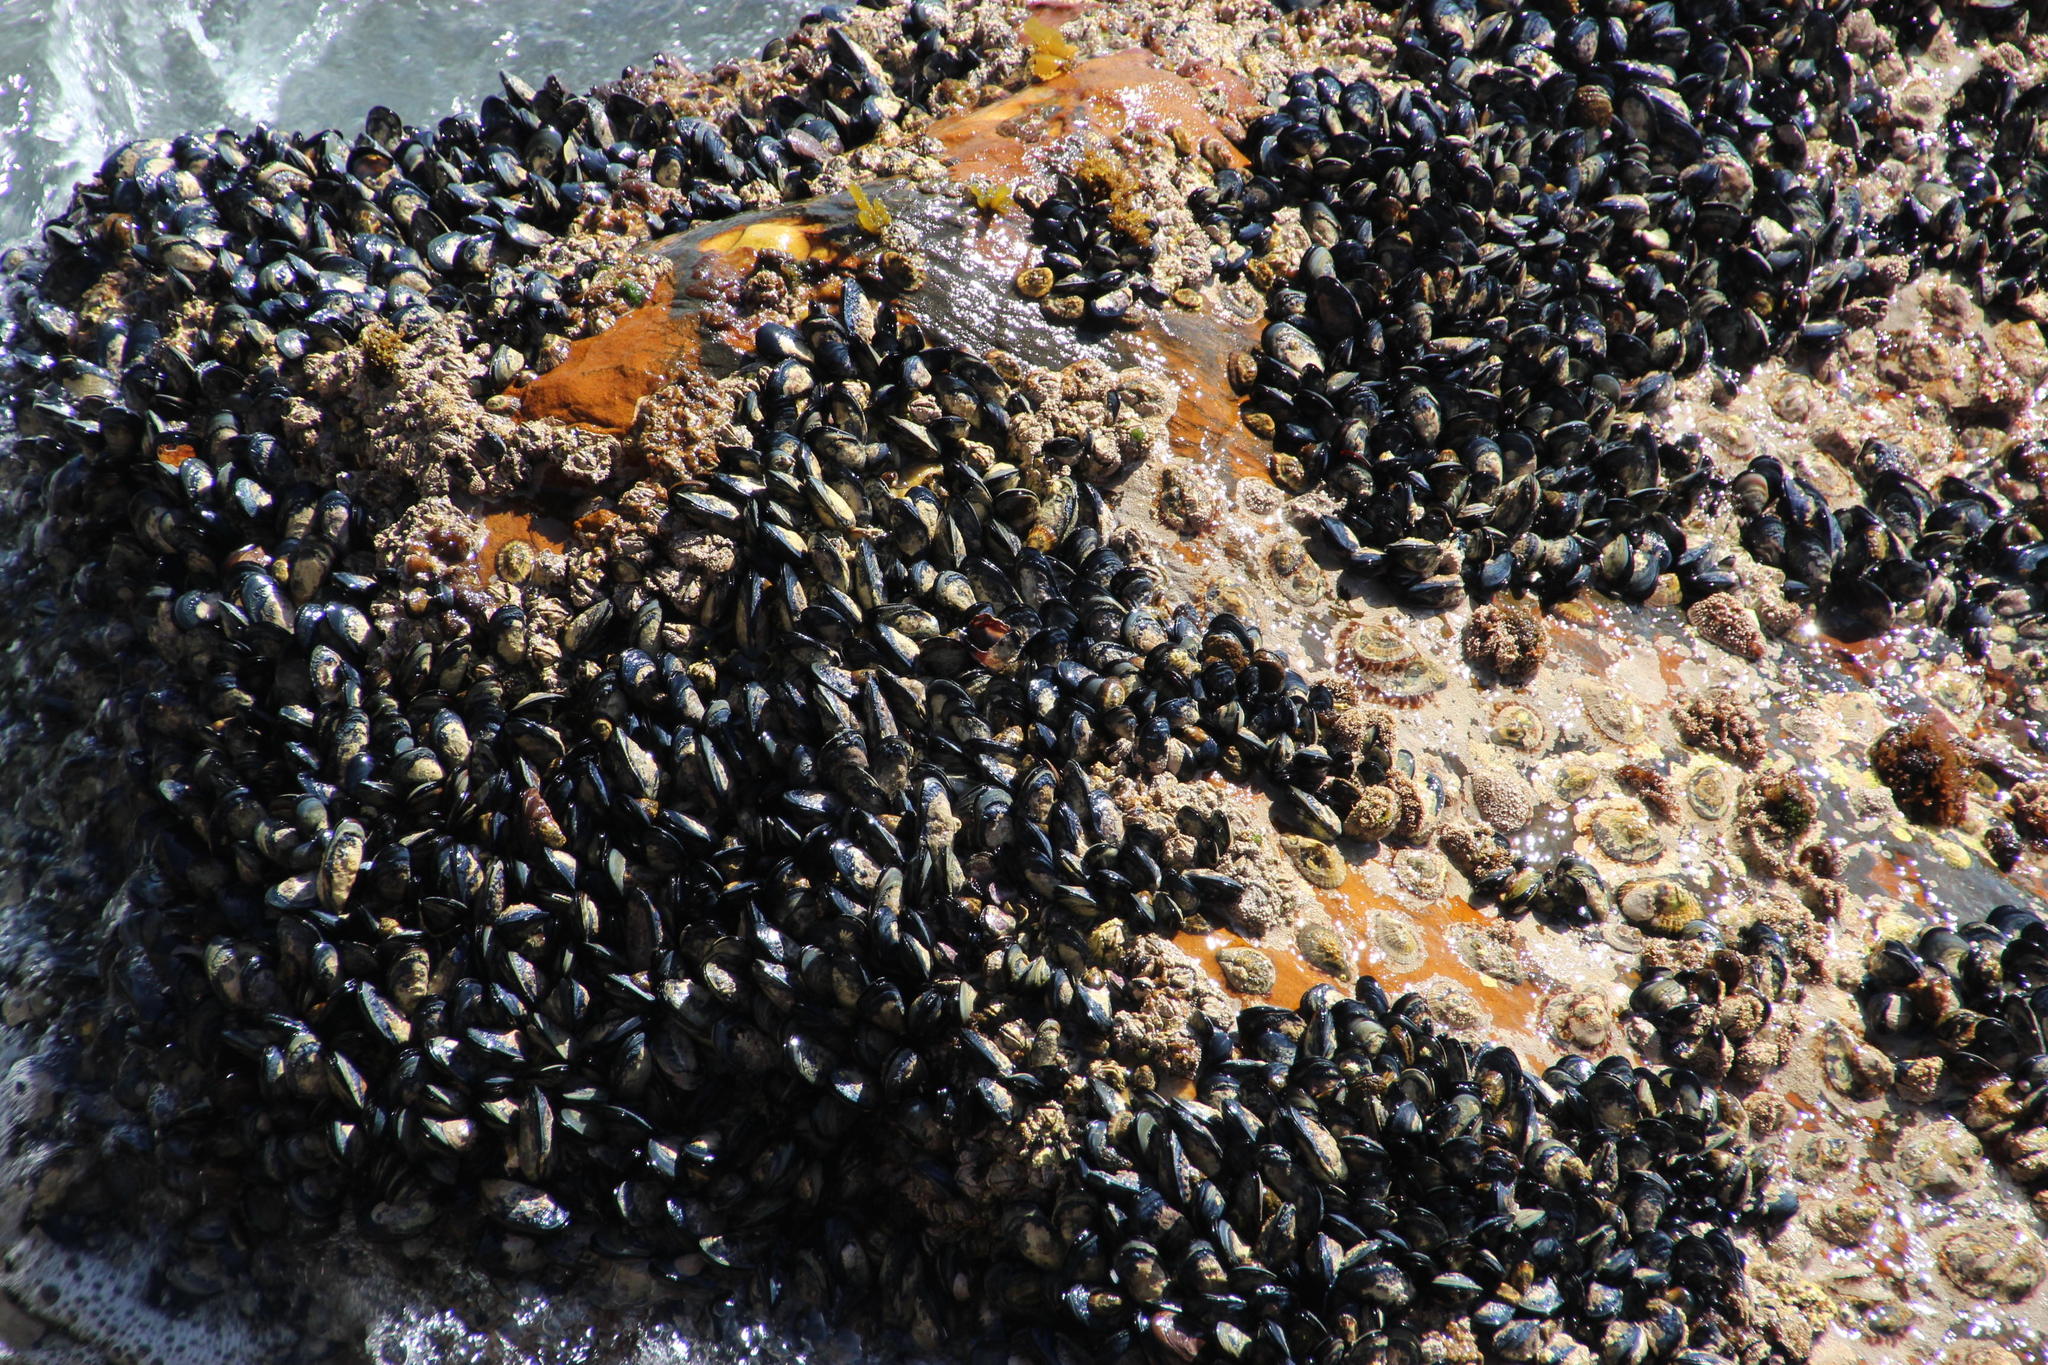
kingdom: Animalia
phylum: Mollusca
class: Bivalvia
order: Mytilida
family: Mytilidae
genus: Mytilus
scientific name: Mytilus galloprovincialis
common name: Mediterranean mussel
